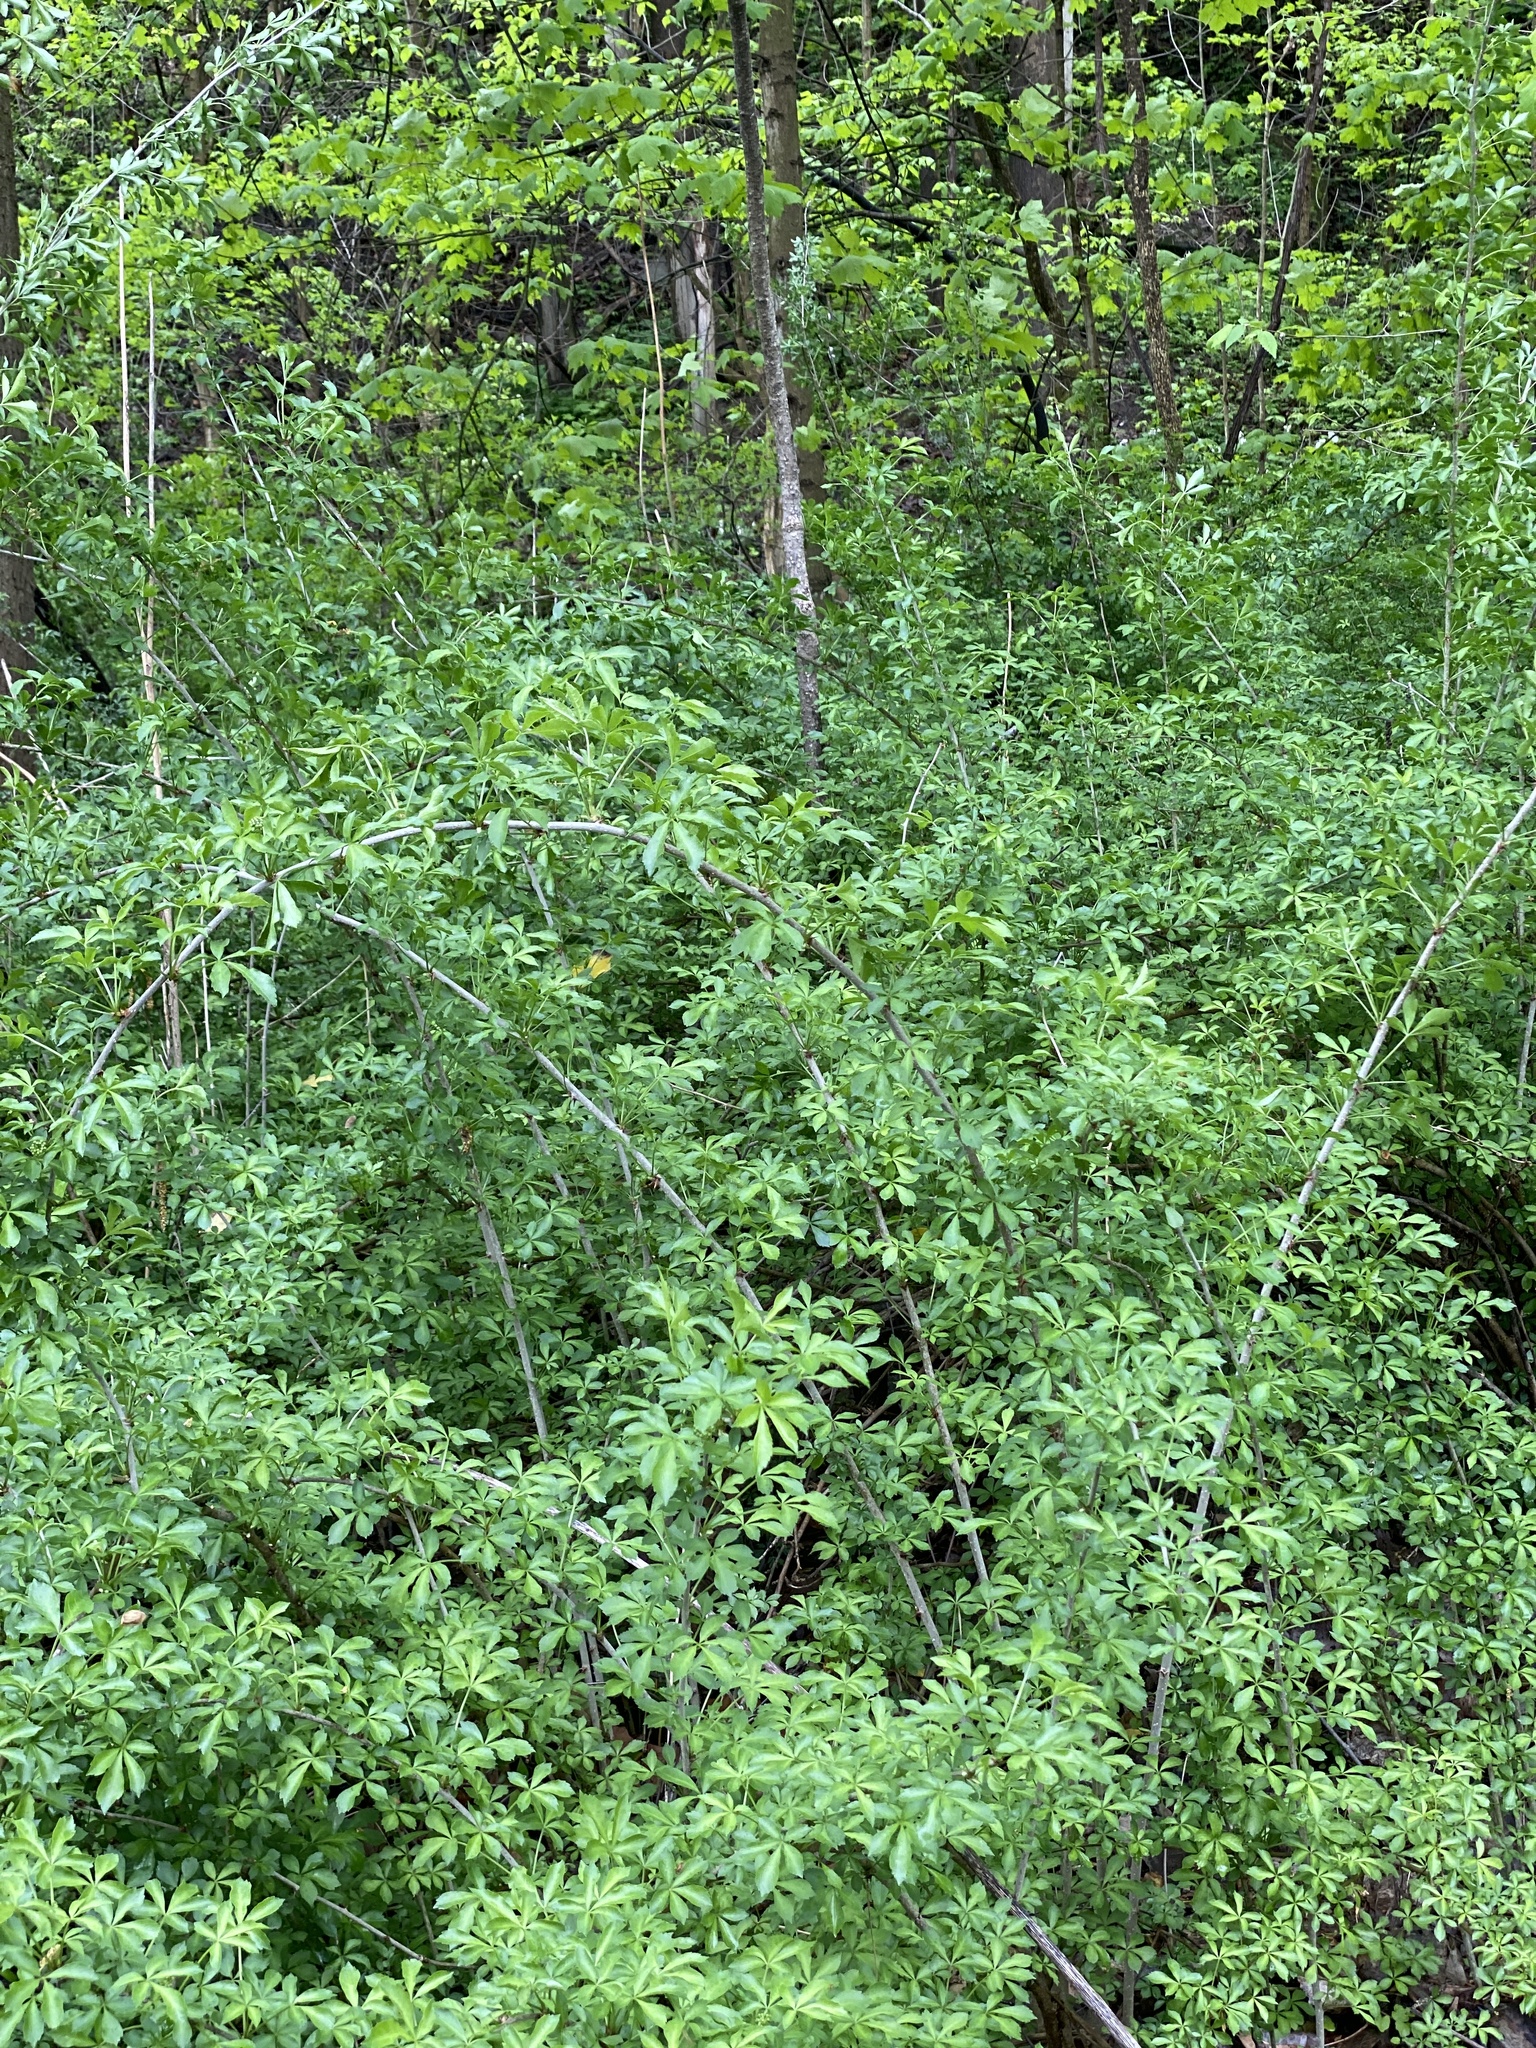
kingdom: Plantae
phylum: Tracheophyta
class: Magnoliopsida
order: Apiales
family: Araliaceae
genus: Eleutherococcus
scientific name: Eleutherococcus sieboldianus
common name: Ginseng
